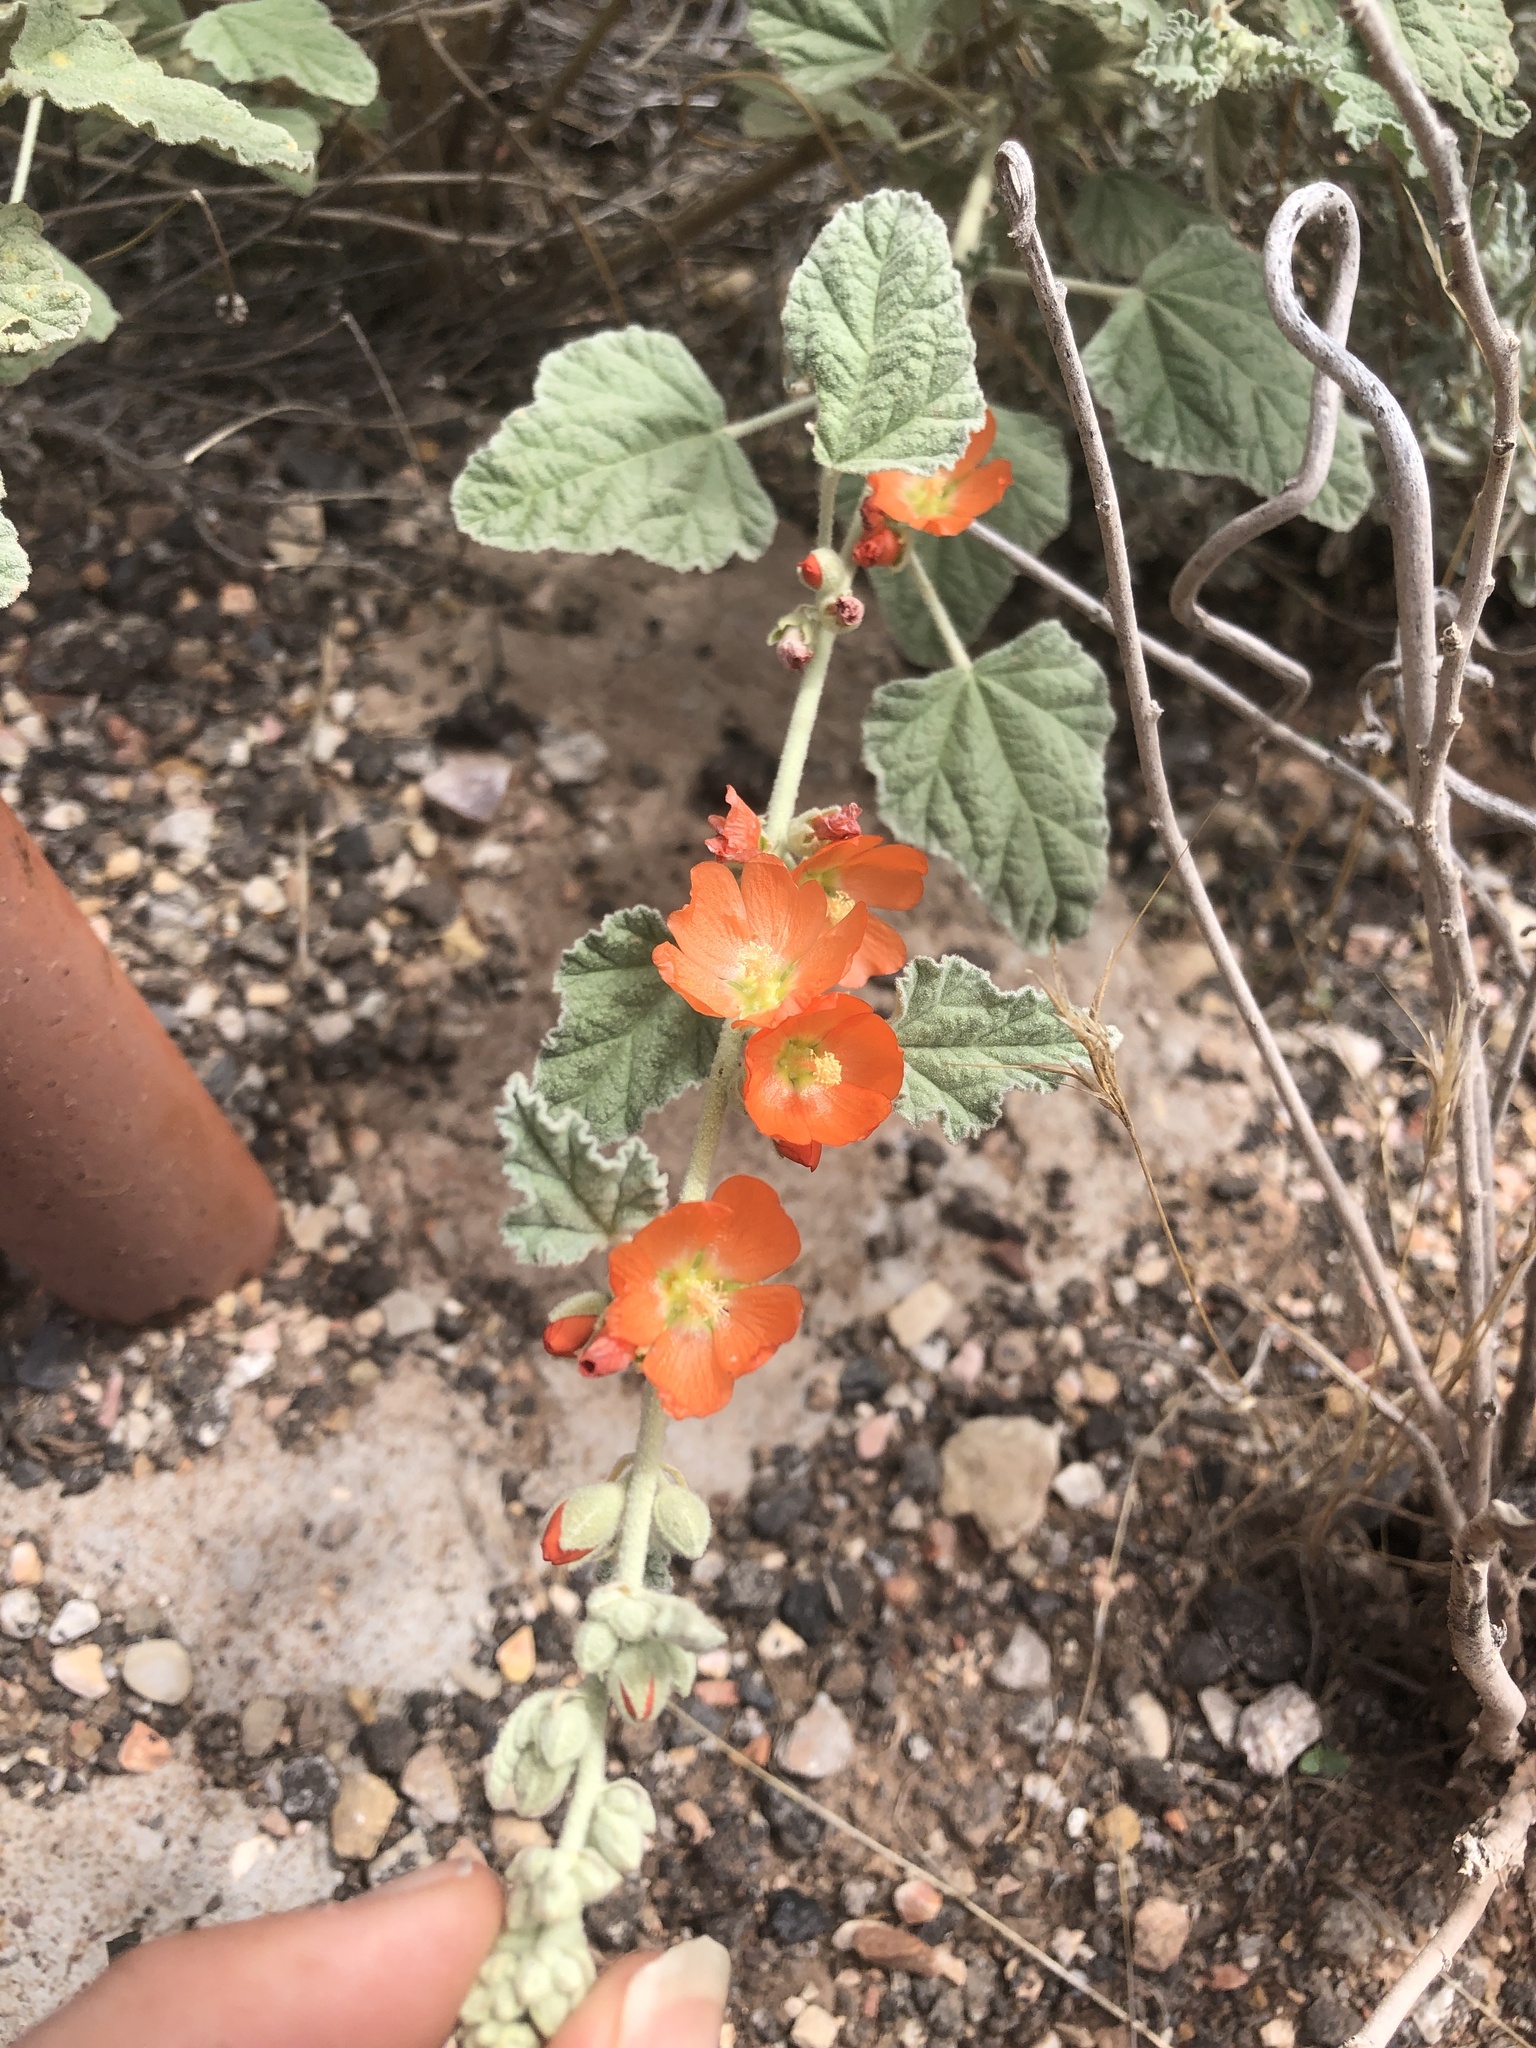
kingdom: Plantae
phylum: Tracheophyta
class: Magnoliopsida
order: Malvales
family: Malvaceae
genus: Sphaeralcea
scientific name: Sphaeralcea ambigua
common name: Apricot globe-mallow
